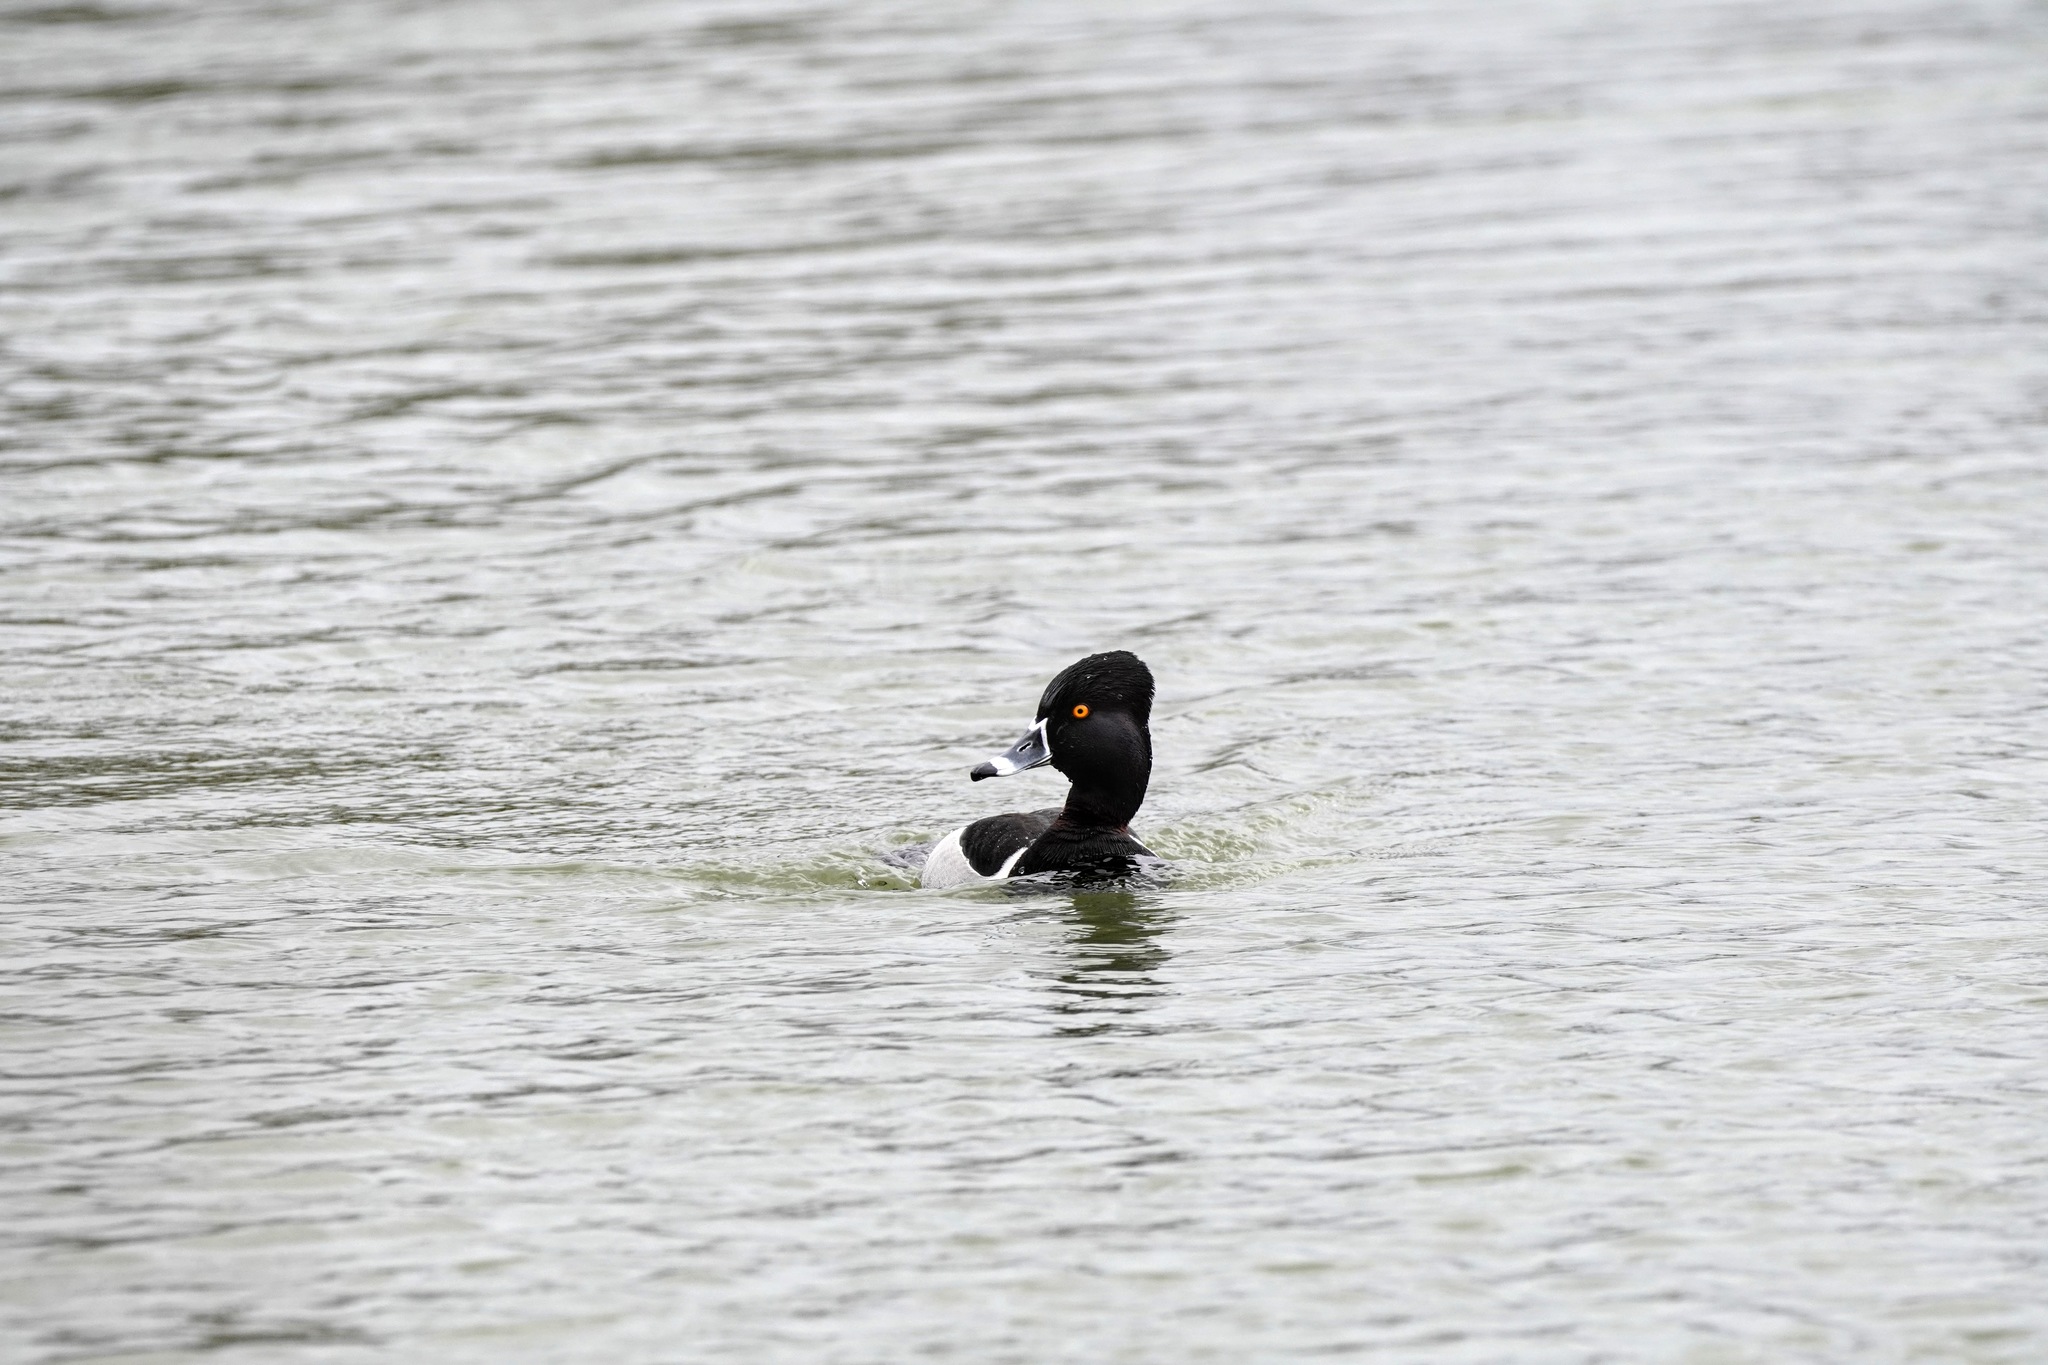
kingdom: Animalia
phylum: Chordata
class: Aves
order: Anseriformes
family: Anatidae
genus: Aythya
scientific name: Aythya collaris
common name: Ring-necked duck
